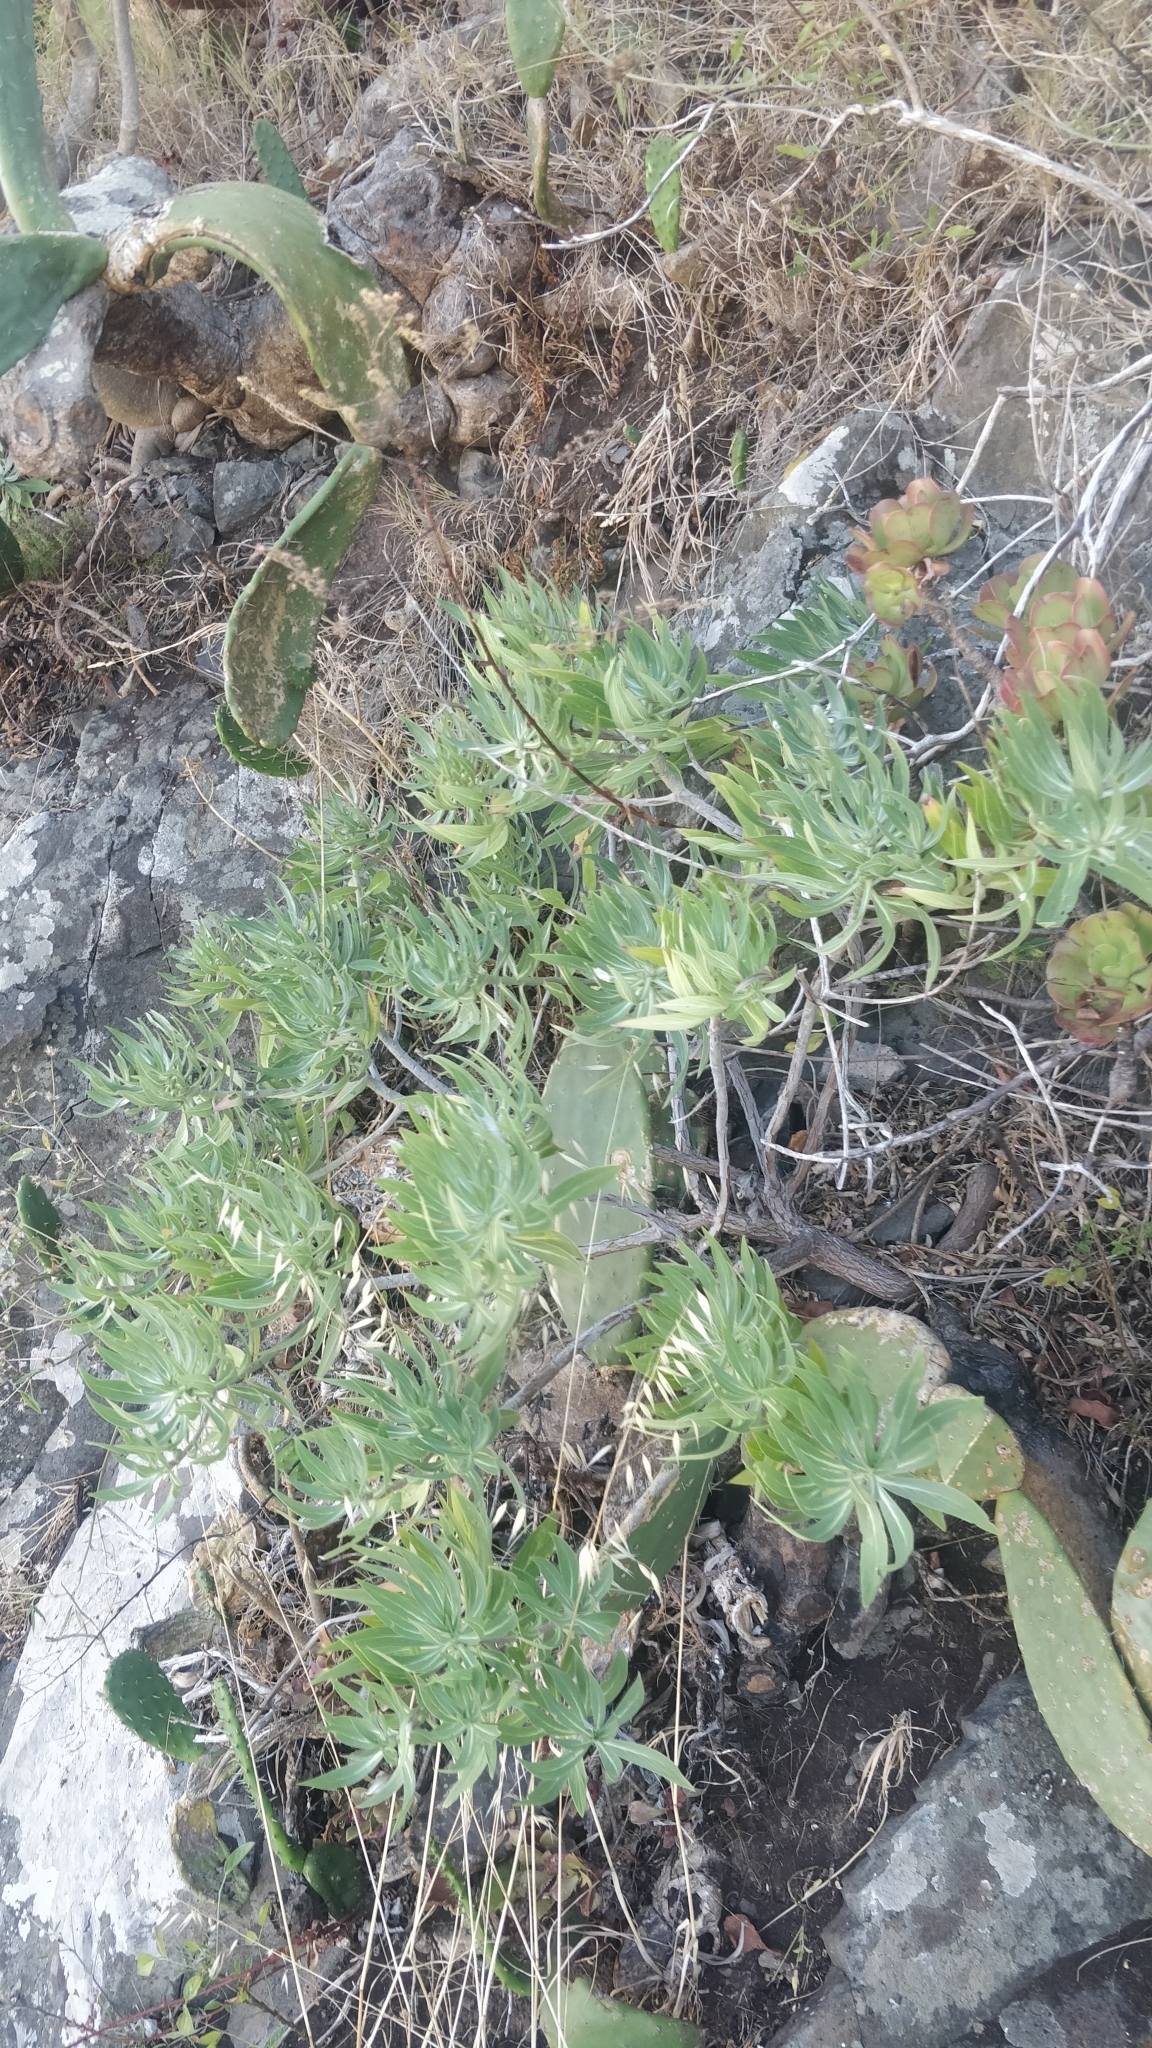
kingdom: Plantae
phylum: Tracheophyta
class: Magnoliopsida
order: Boraginales
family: Boraginaceae
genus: Echium
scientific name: Echium nervosum
